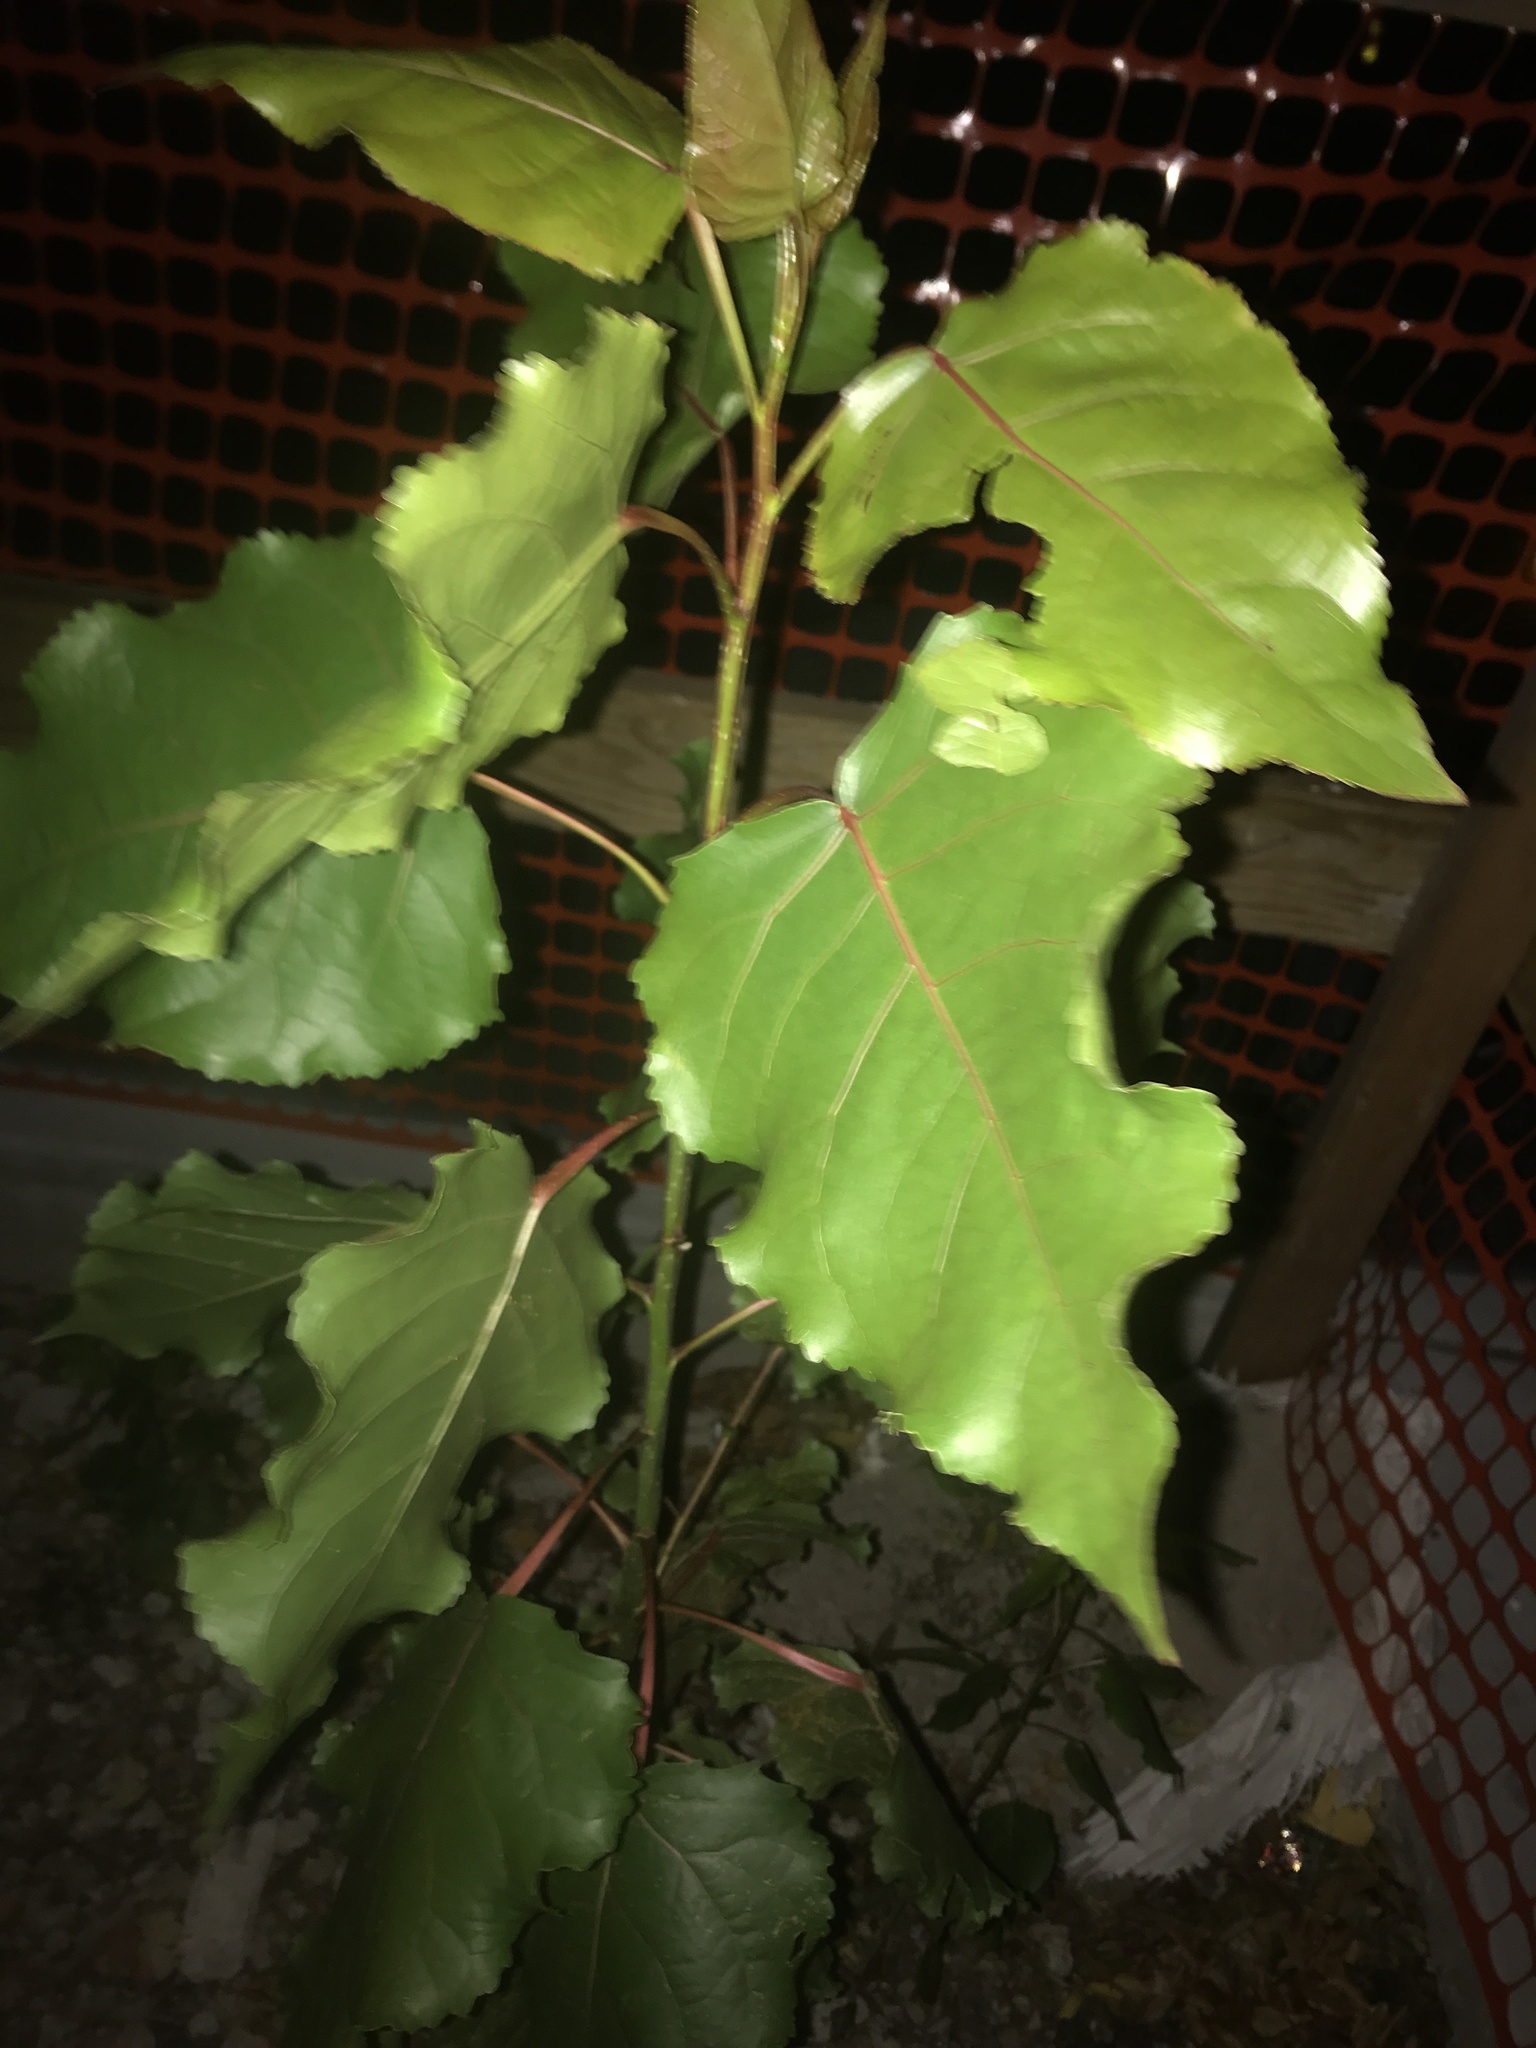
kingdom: Plantae
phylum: Tracheophyta
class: Magnoliopsida
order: Malpighiales
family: Salicaceae
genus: Populus
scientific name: Populus deltoides
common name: Eastern cottonwood
